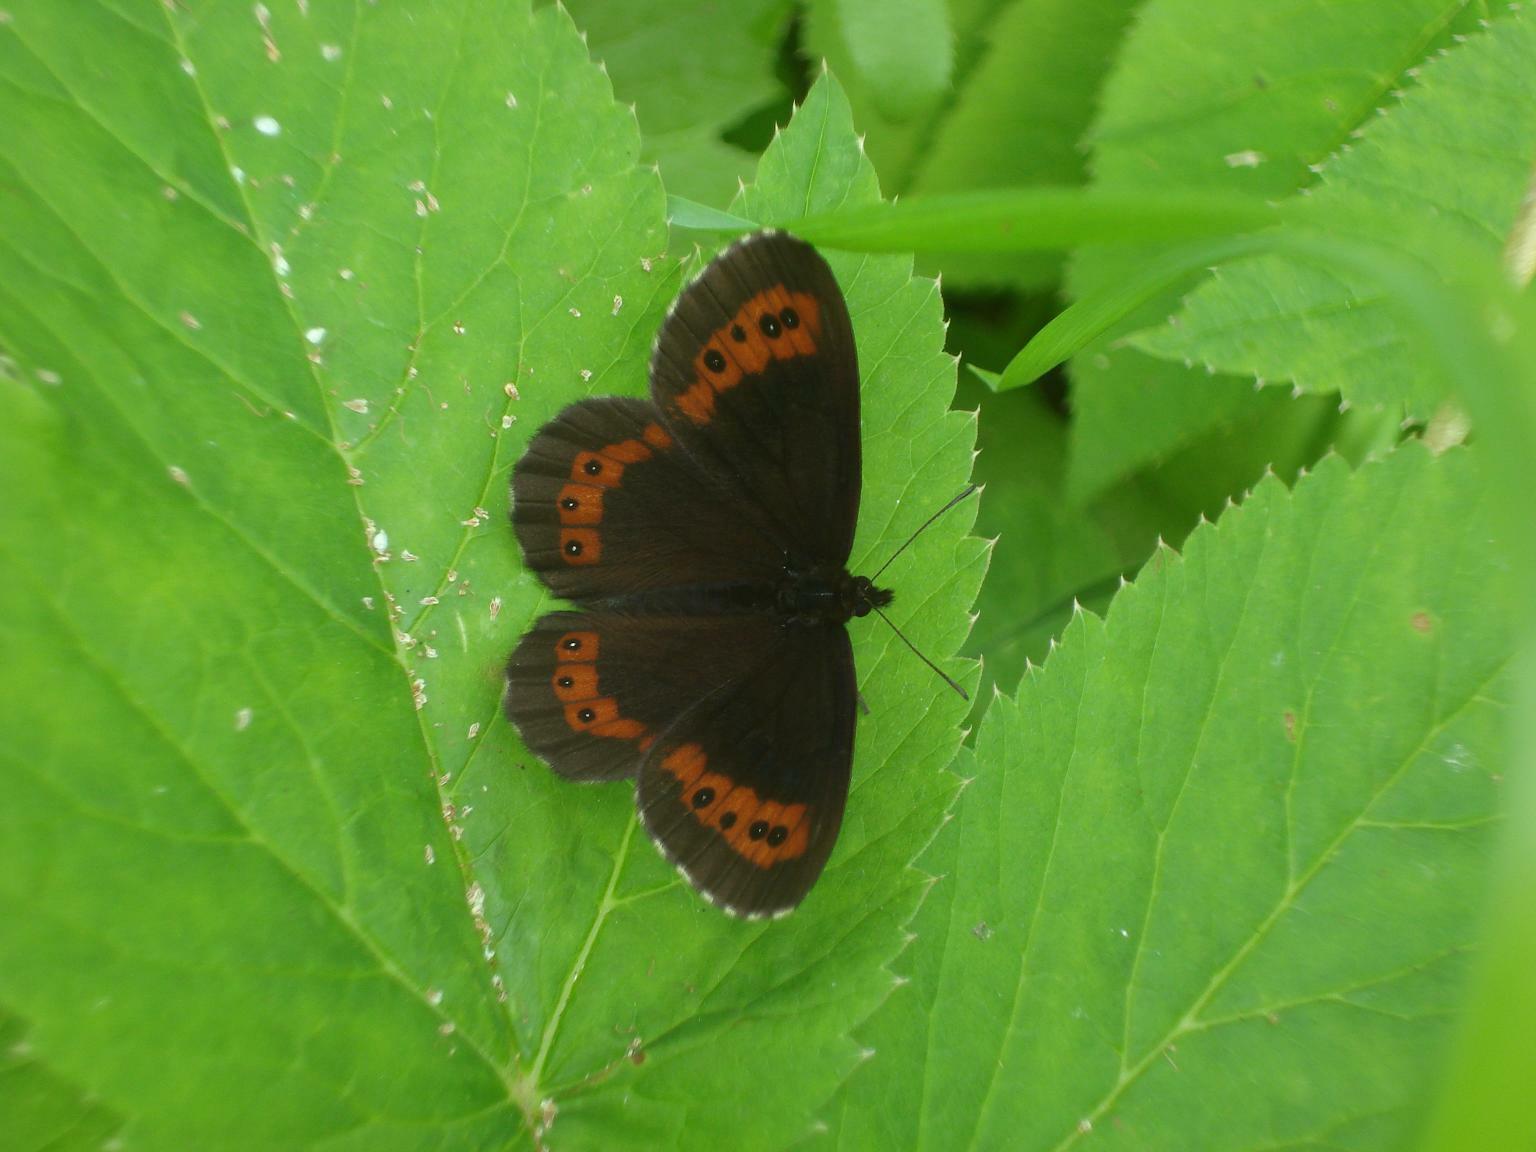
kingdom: Animalia
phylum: Arthropoda
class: Insecta
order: Lepidoptera
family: Nymphalidae
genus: Erebia
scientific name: Erebia ligea
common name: Arran brown
